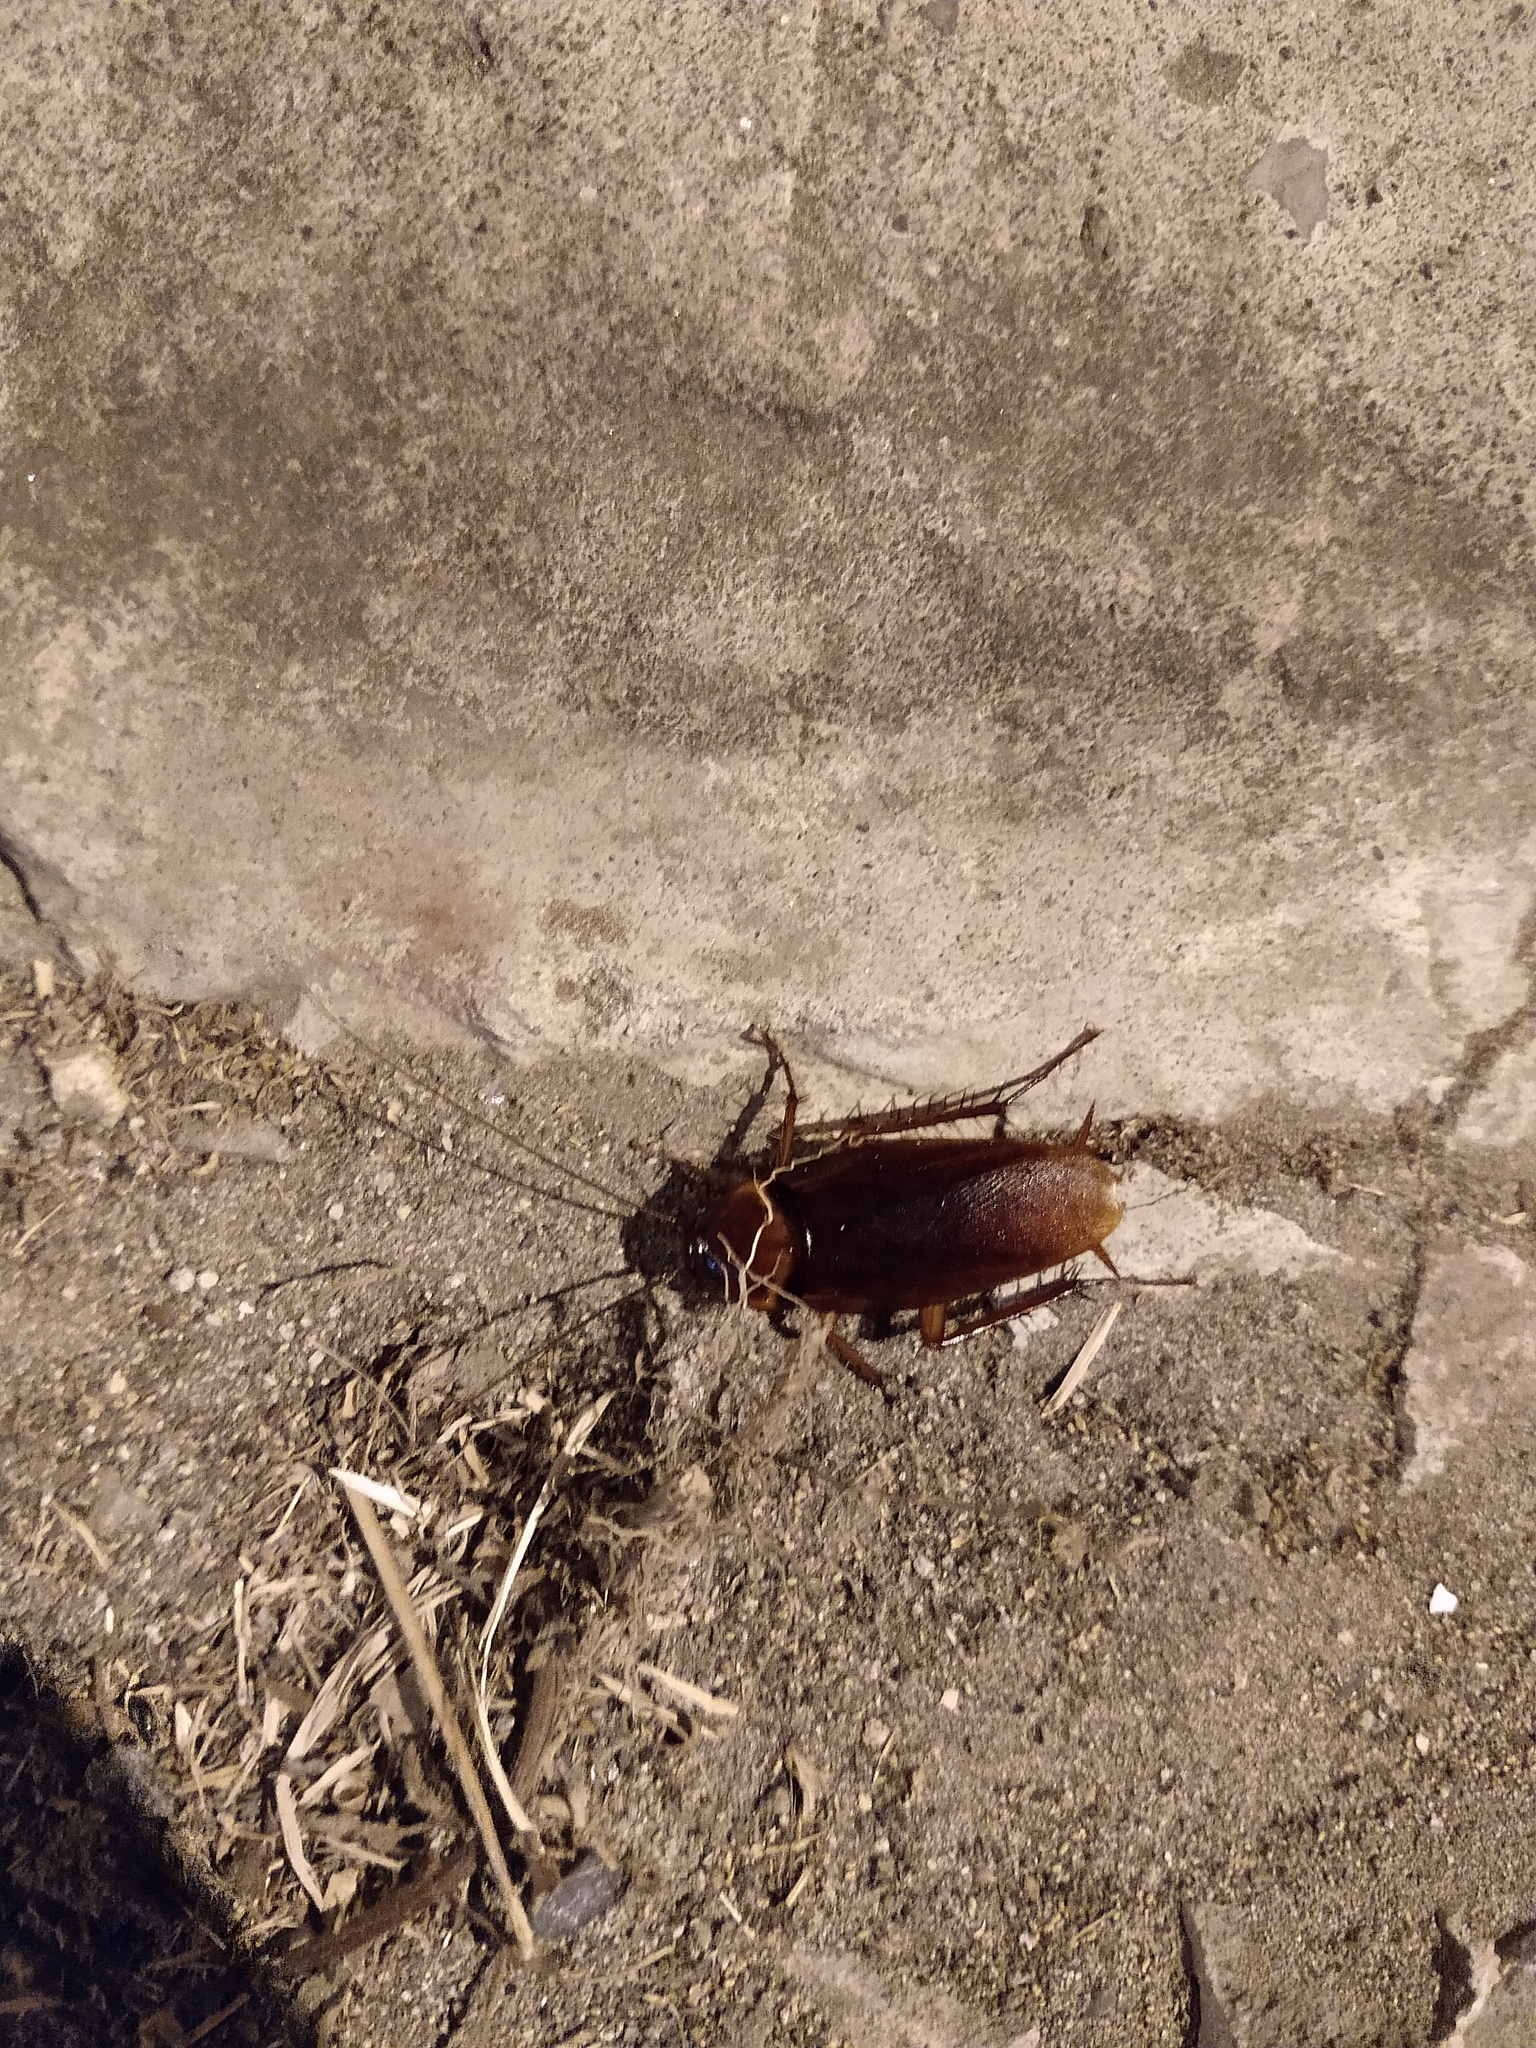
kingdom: Animalia
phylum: Arthropoda
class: Insecta
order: Blattodea
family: Blattidae
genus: Periplaneta
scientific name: Periplaneta americana
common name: American cockroach
